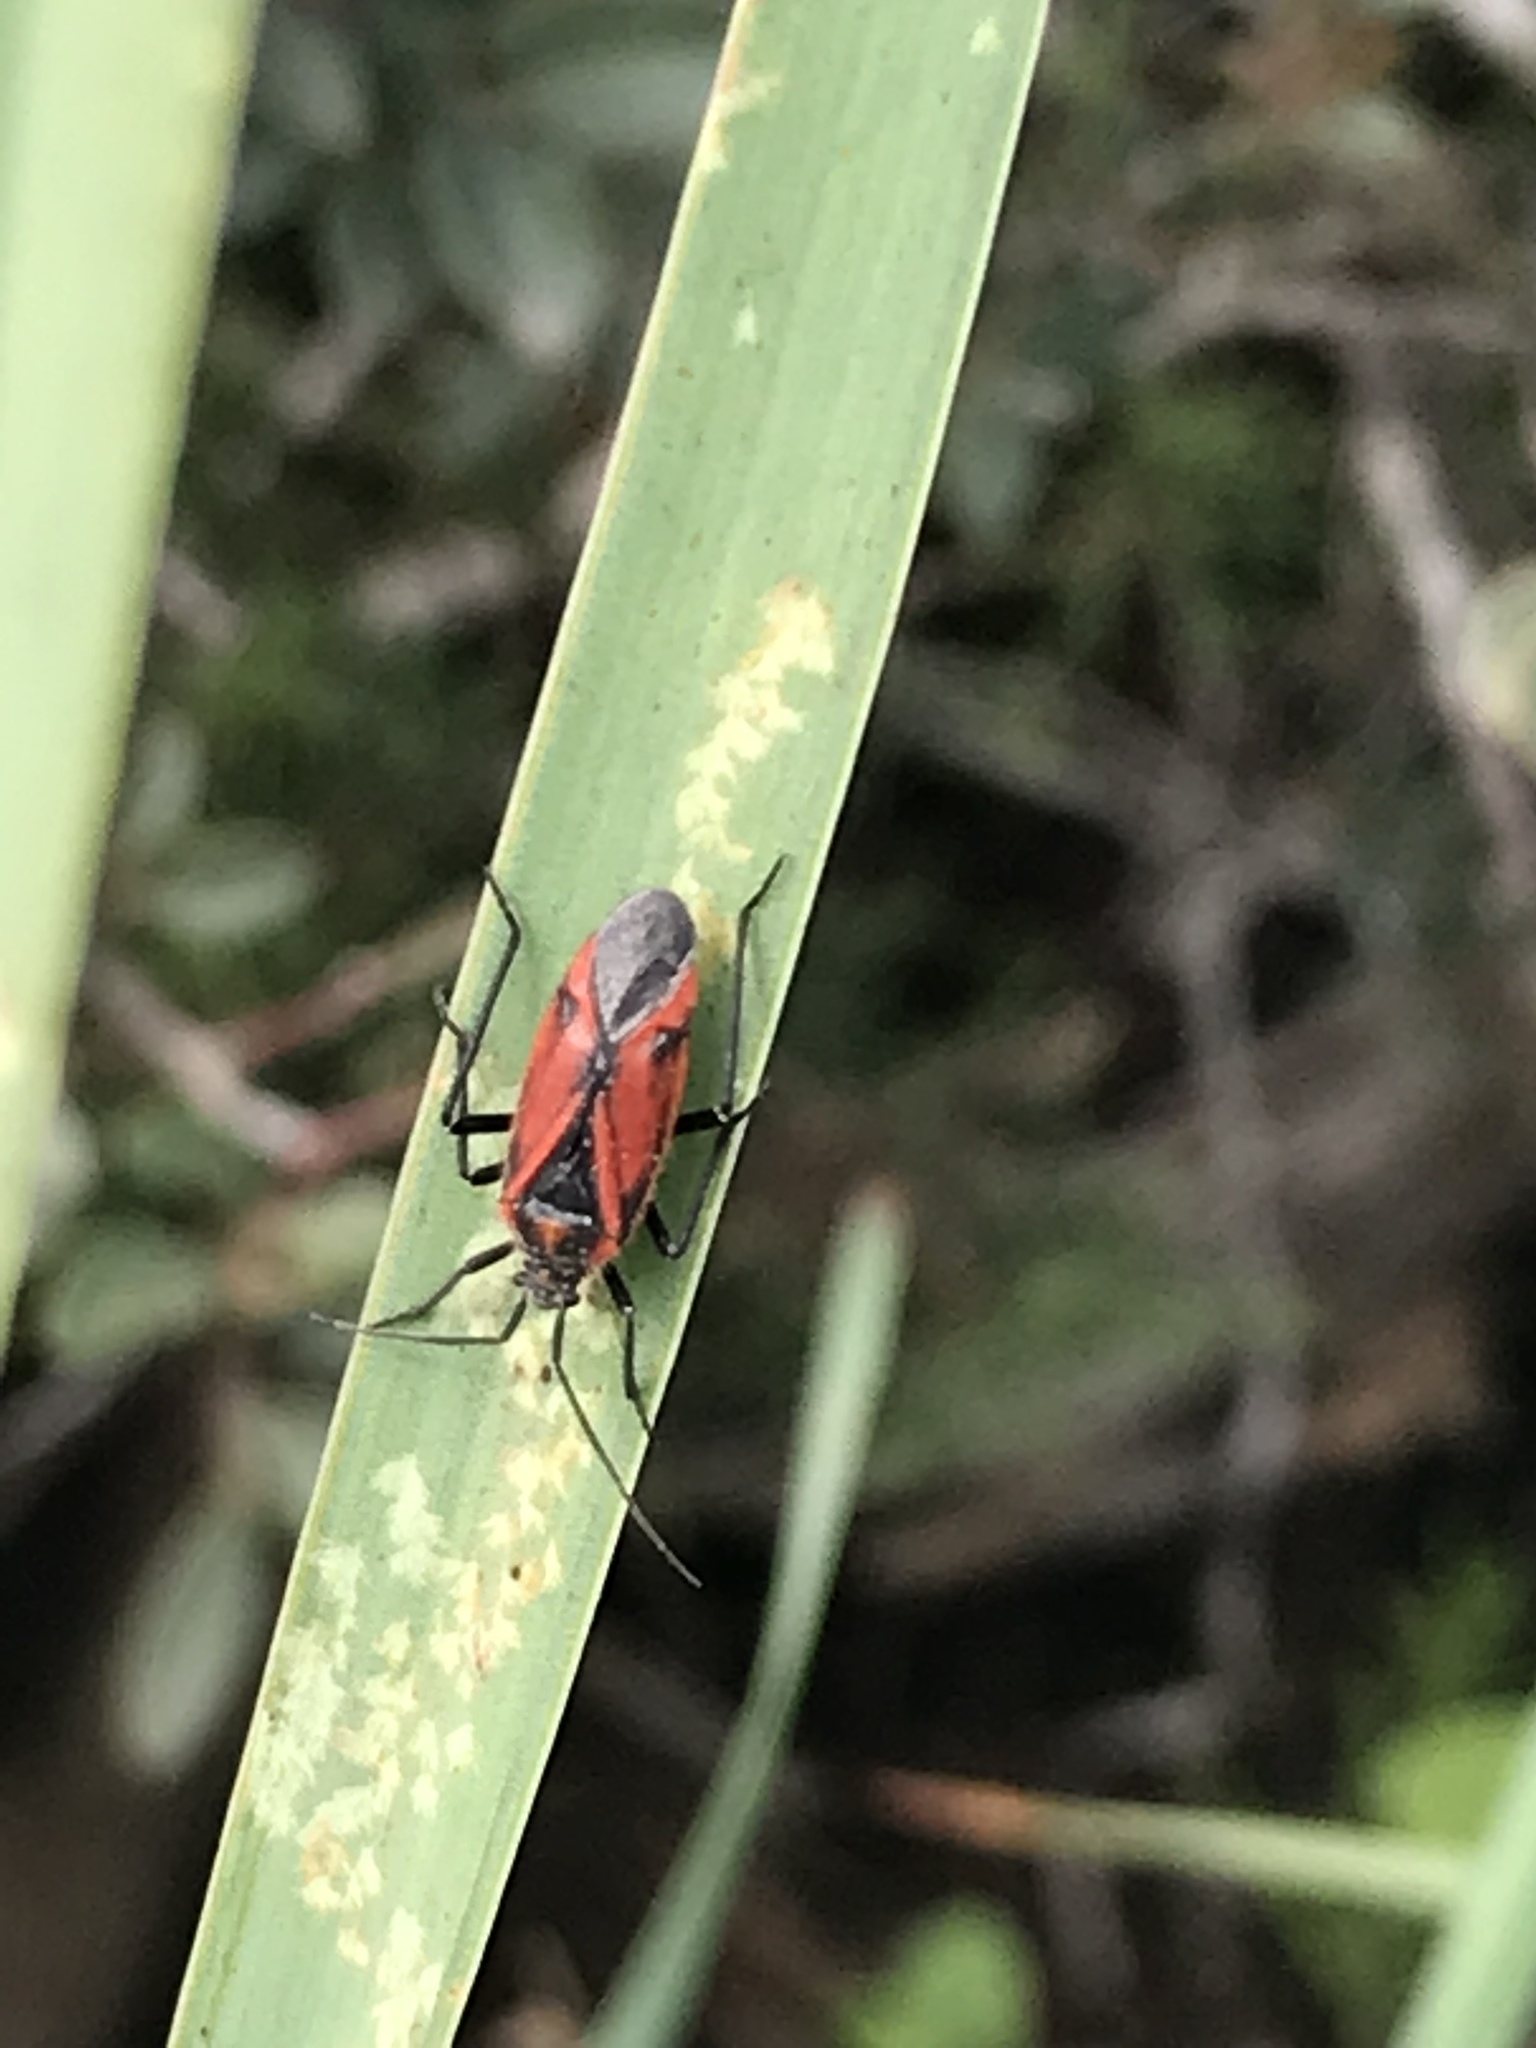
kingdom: Animalia
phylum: Arthropoda
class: Insecta
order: Hemiptera
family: Miridae
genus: Horistus
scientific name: Horistus turcomanus
